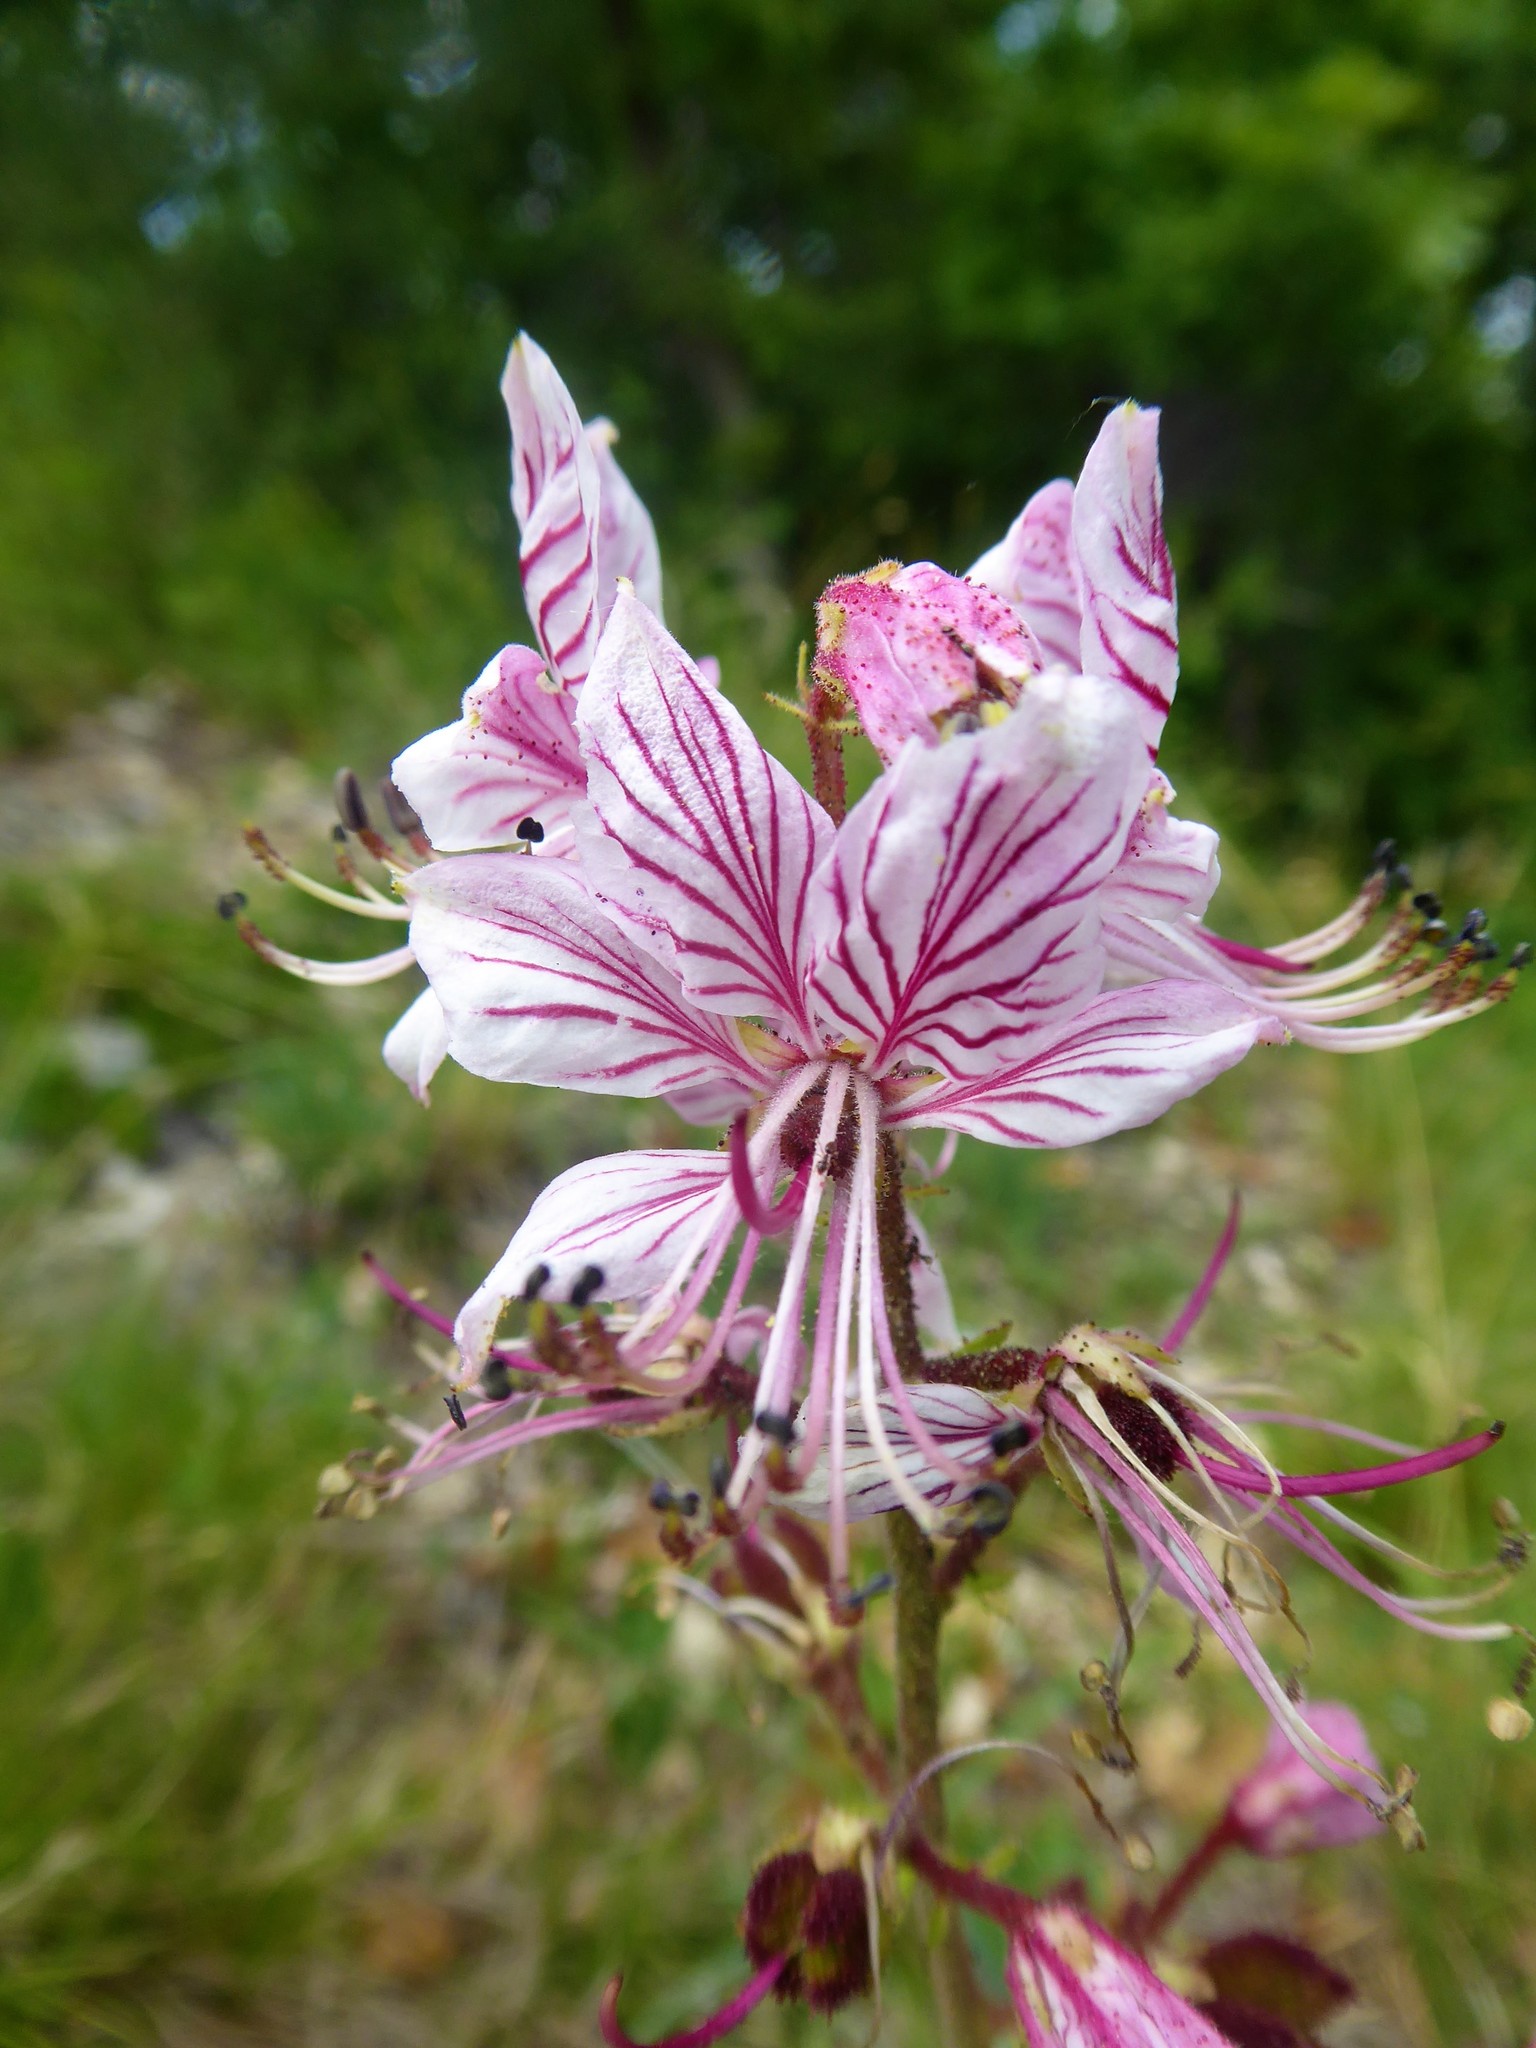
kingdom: Plantae
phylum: Tracheophyta
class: Magnoliopsida
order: Sapindales
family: Rutaceae
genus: Dictamnus
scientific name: Dictamnus albus
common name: Gasplant
